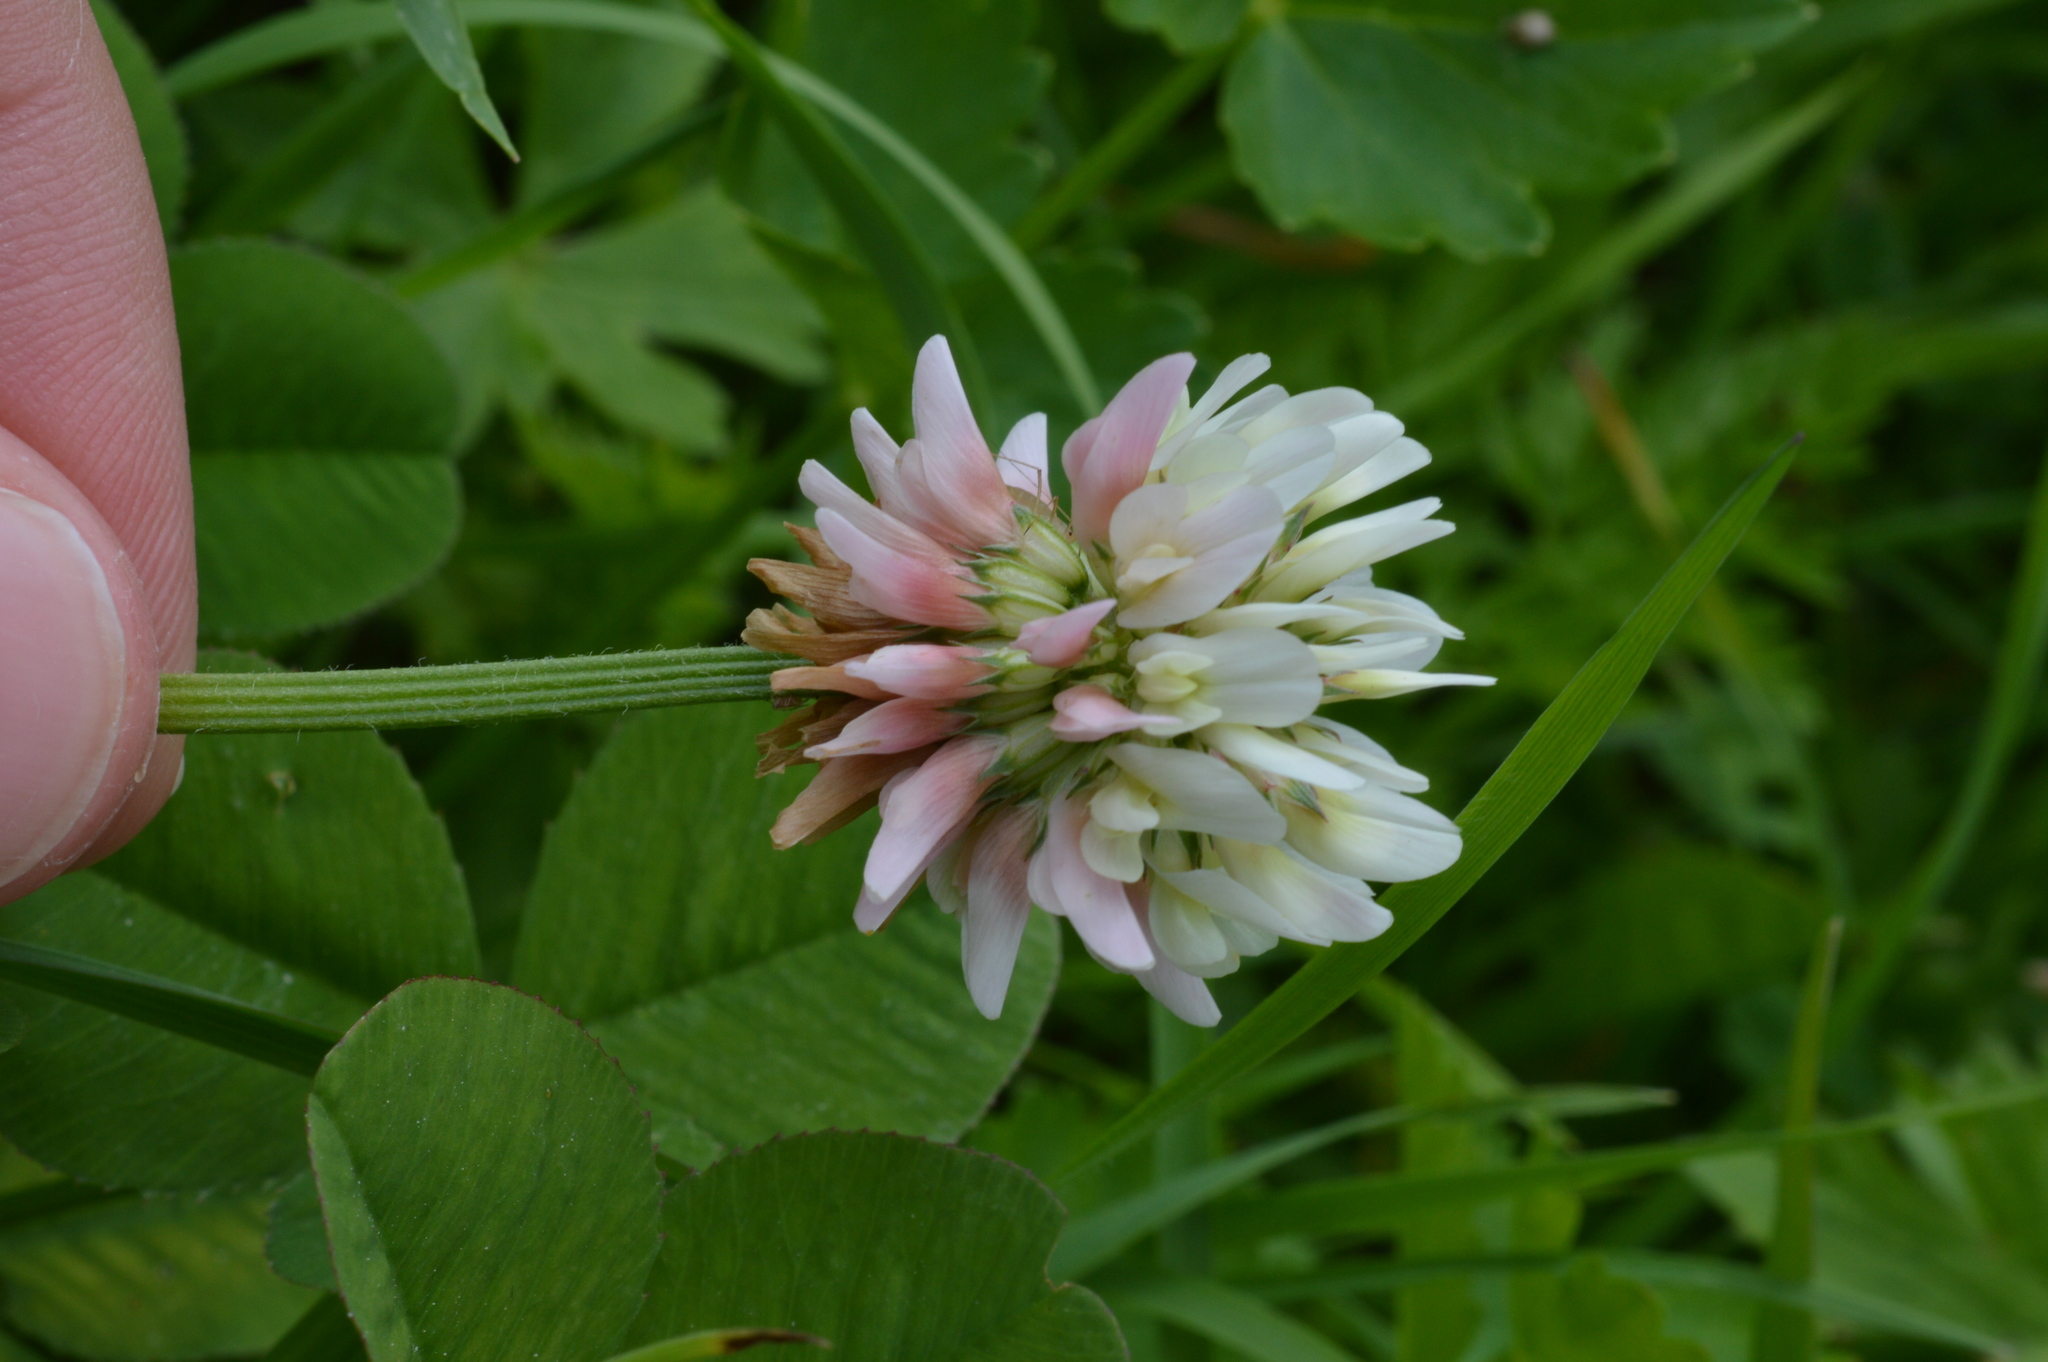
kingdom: Plantae
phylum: Tracheophyta
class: Magnoliopsida
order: Fabales
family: Fabaceae
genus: Trifolium
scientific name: Trifolium hybridum
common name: Alsike clover
